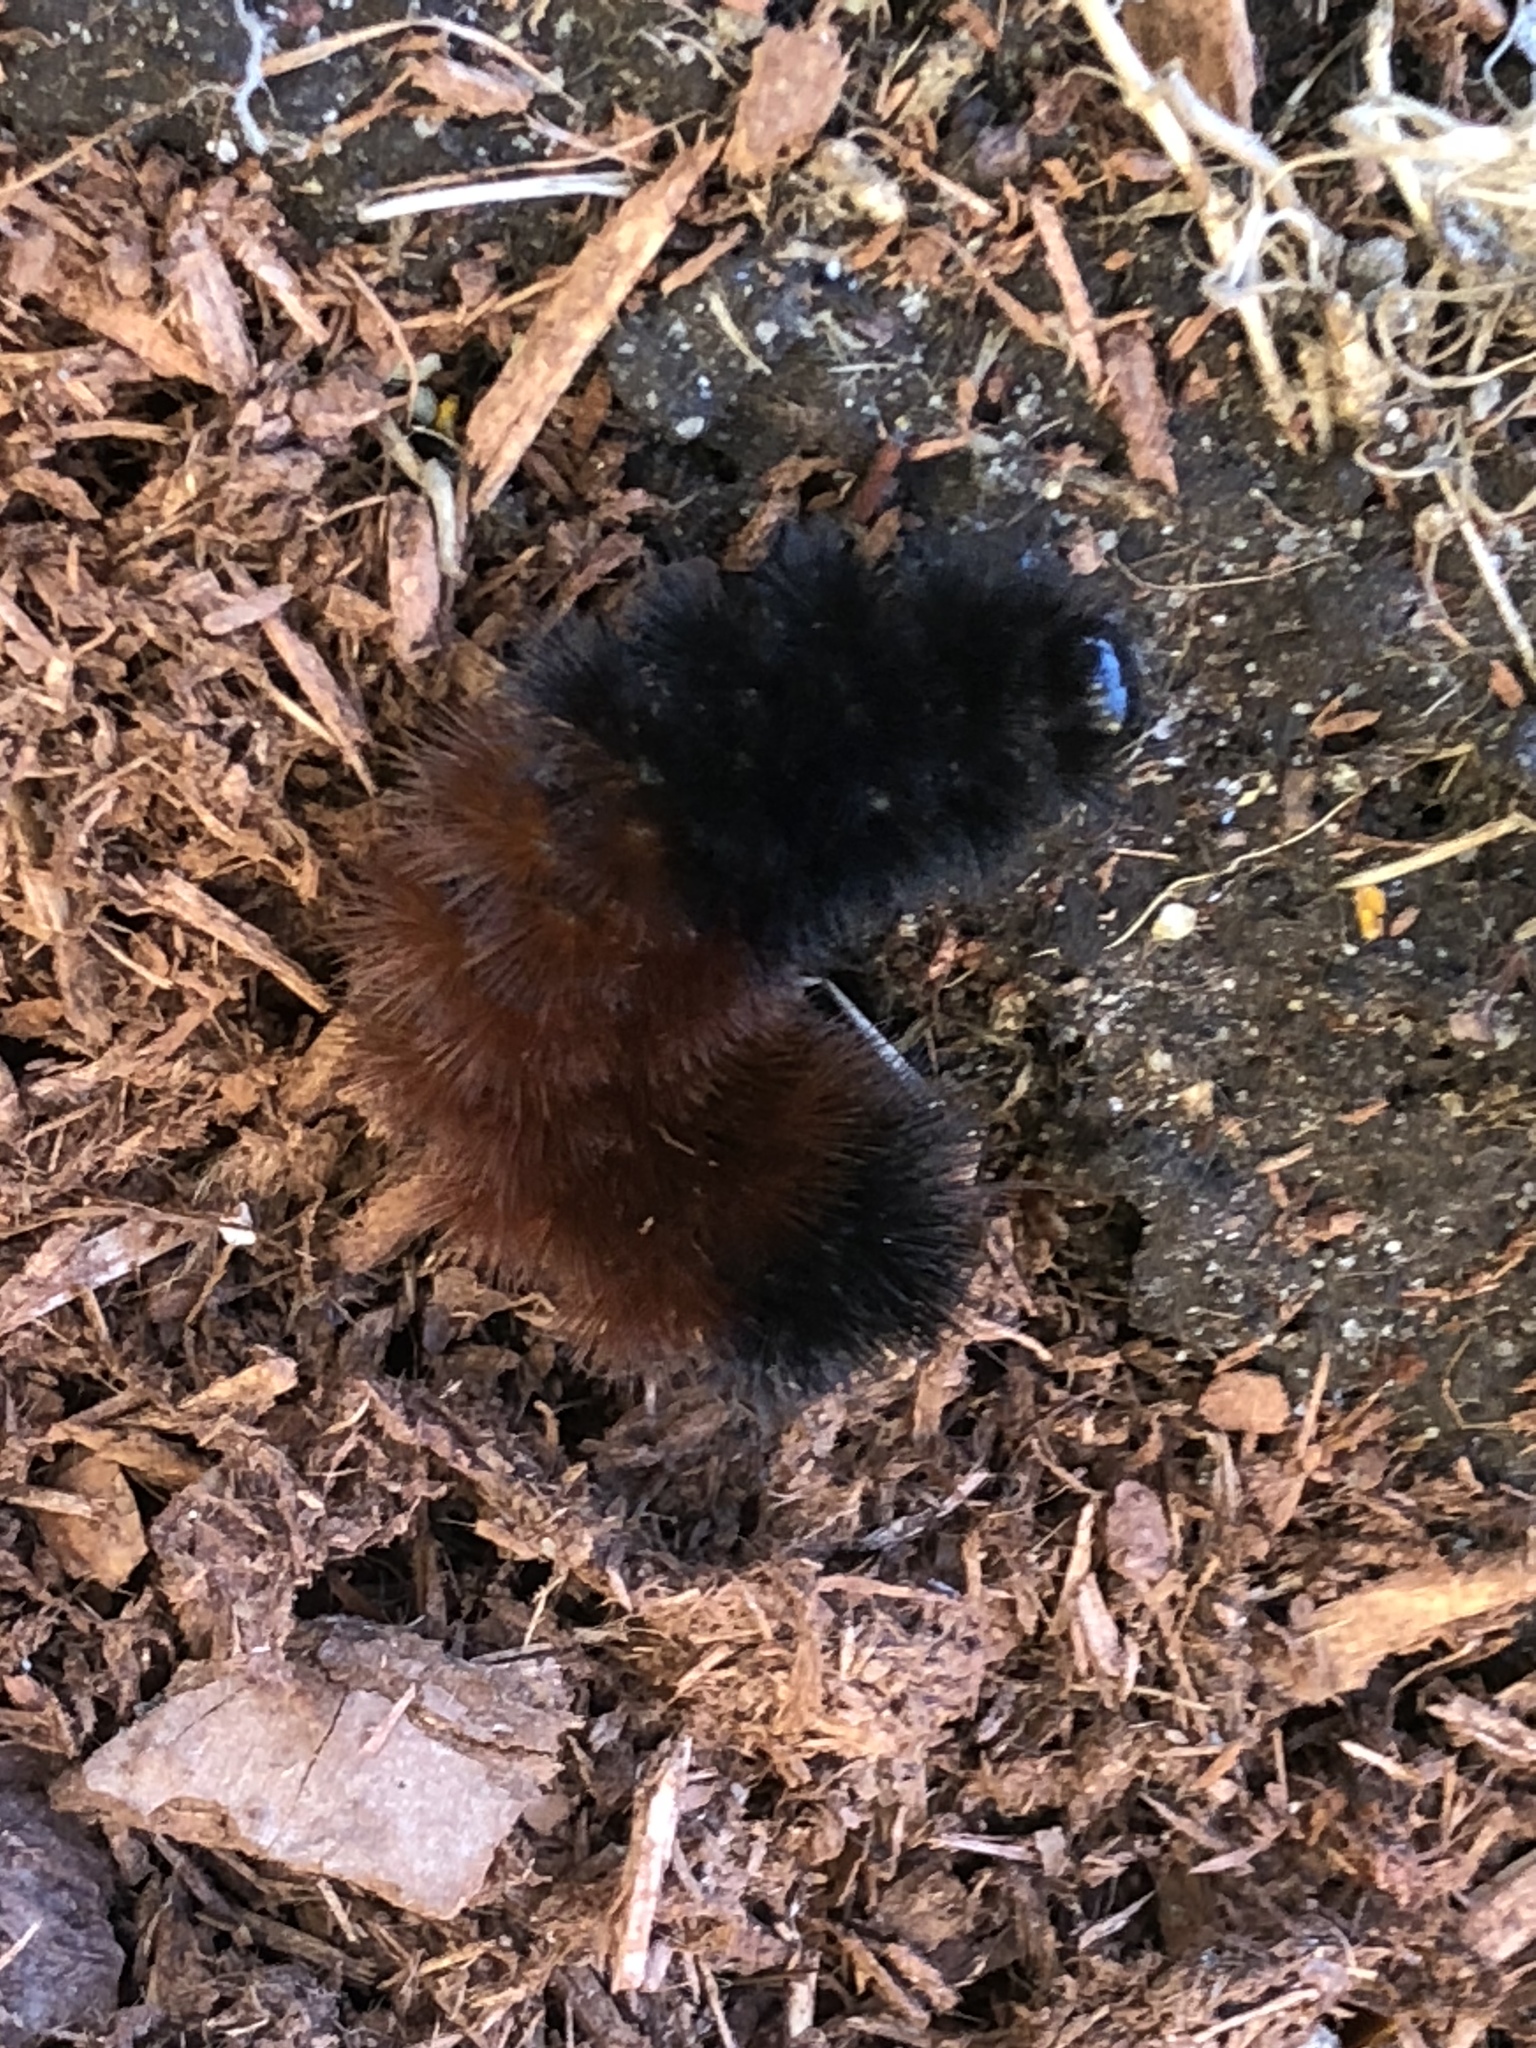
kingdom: Animalia
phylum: Arthropoda
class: Insecta
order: Lepidoptera
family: Erebidae
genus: Pyrrharctia
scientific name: Pyrrharctia isabella
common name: Isabella tiger moth
